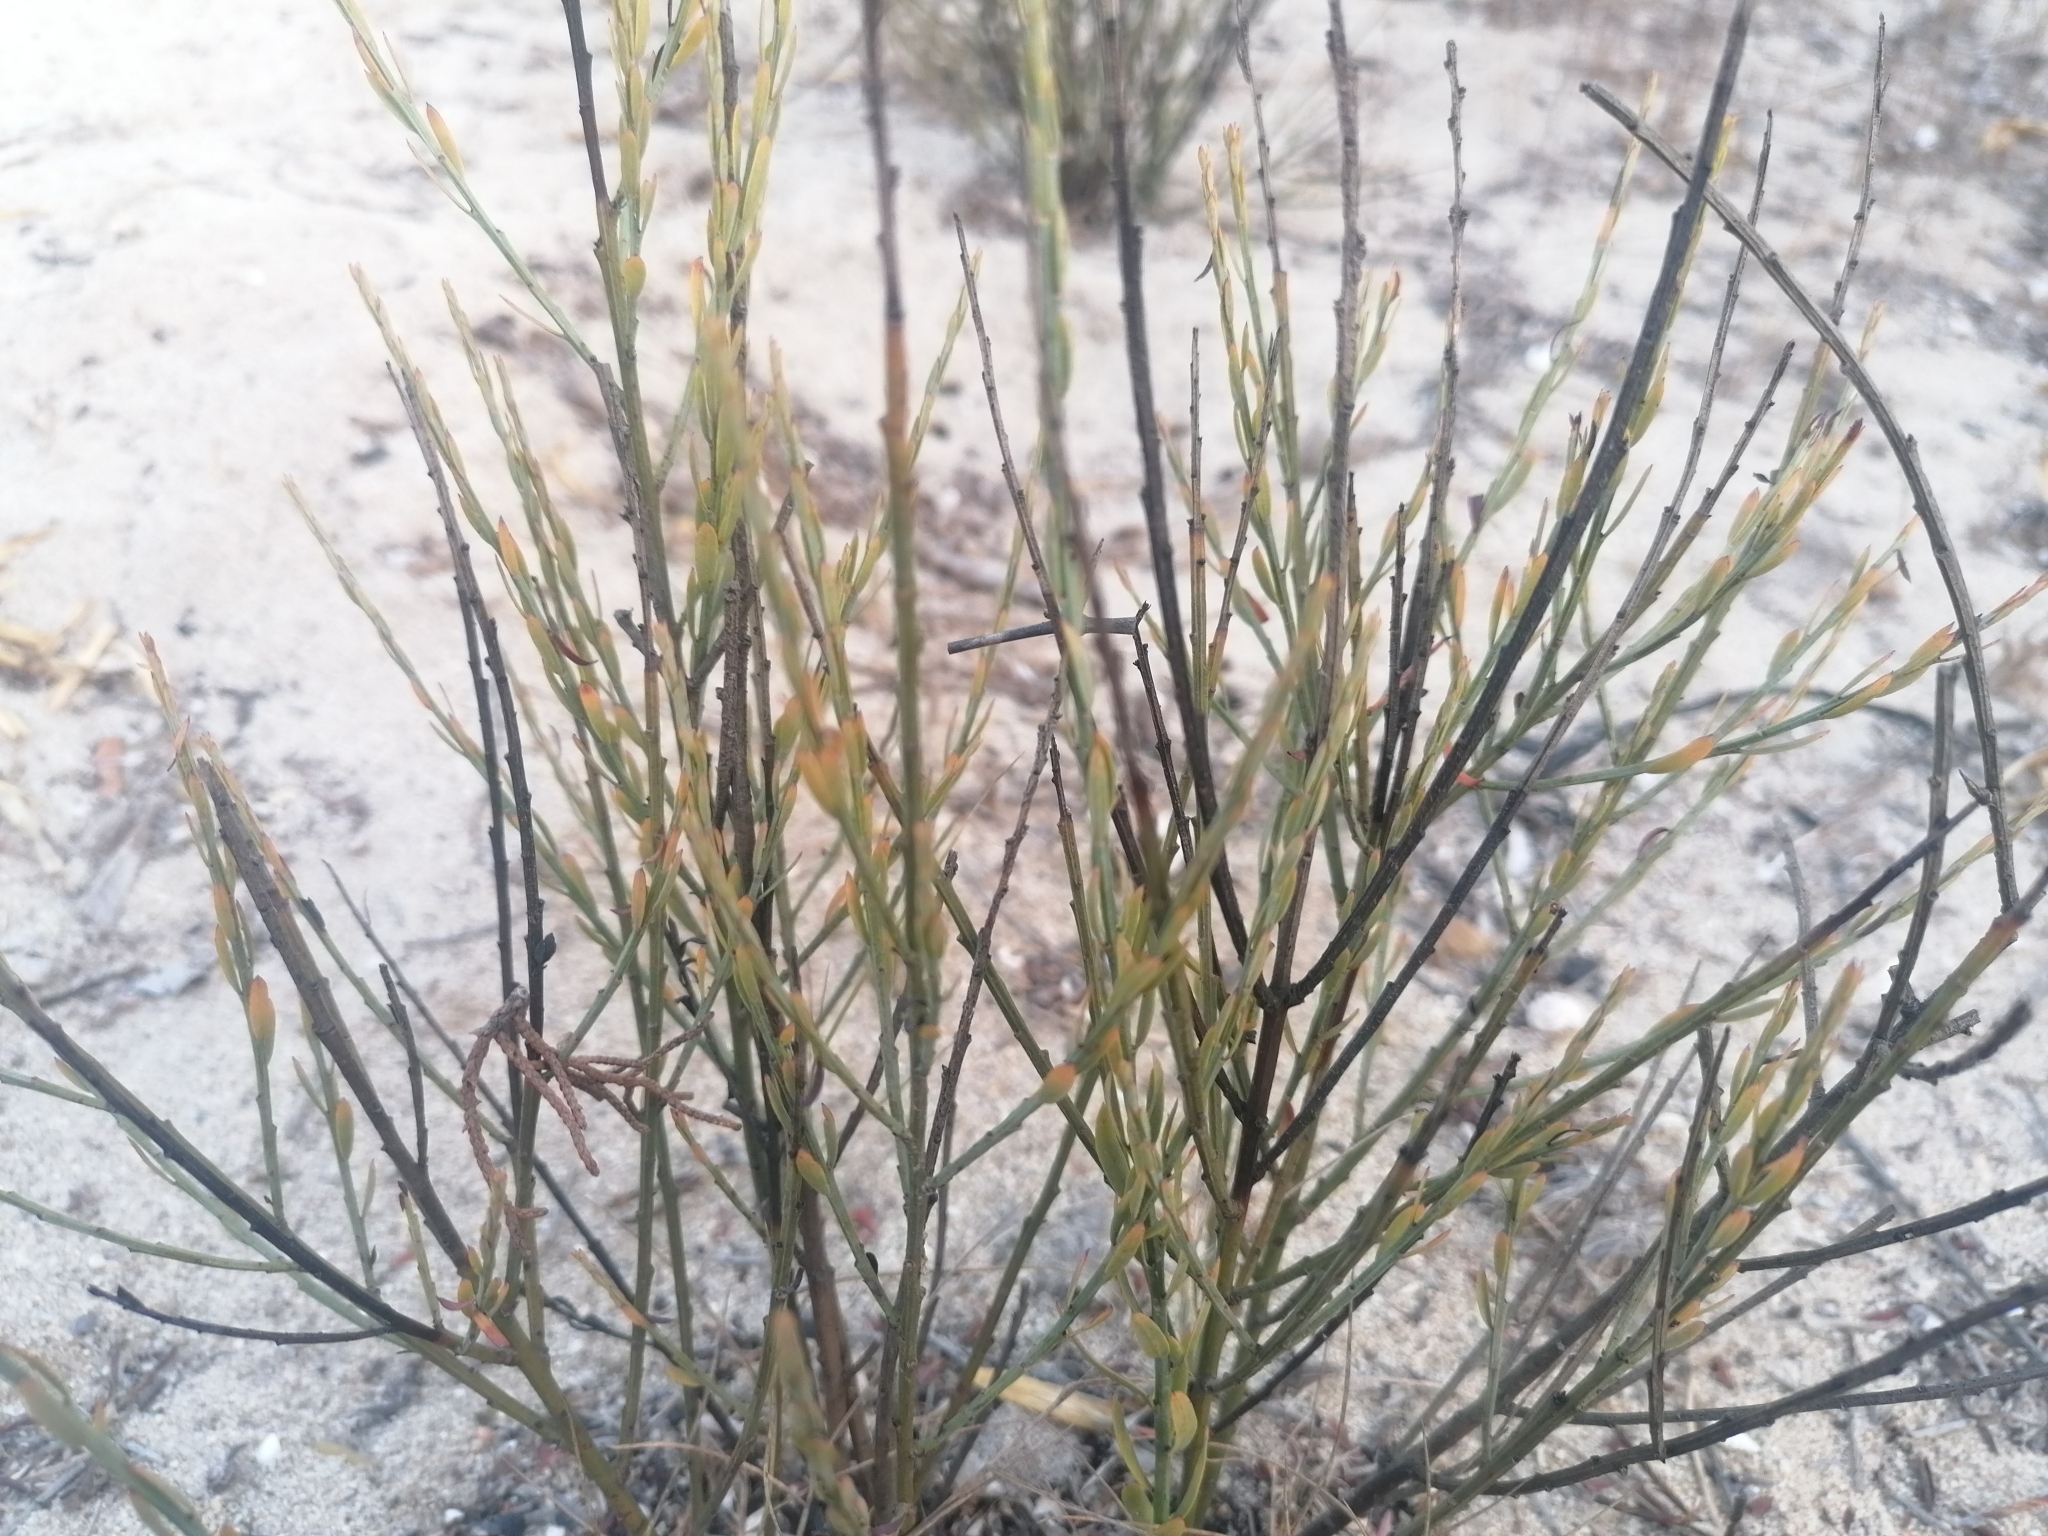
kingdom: Plantae
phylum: Tracheophyta
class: Magnoliopsida
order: Santalales
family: Santalaceae
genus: Osyris
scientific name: Osyris alba
